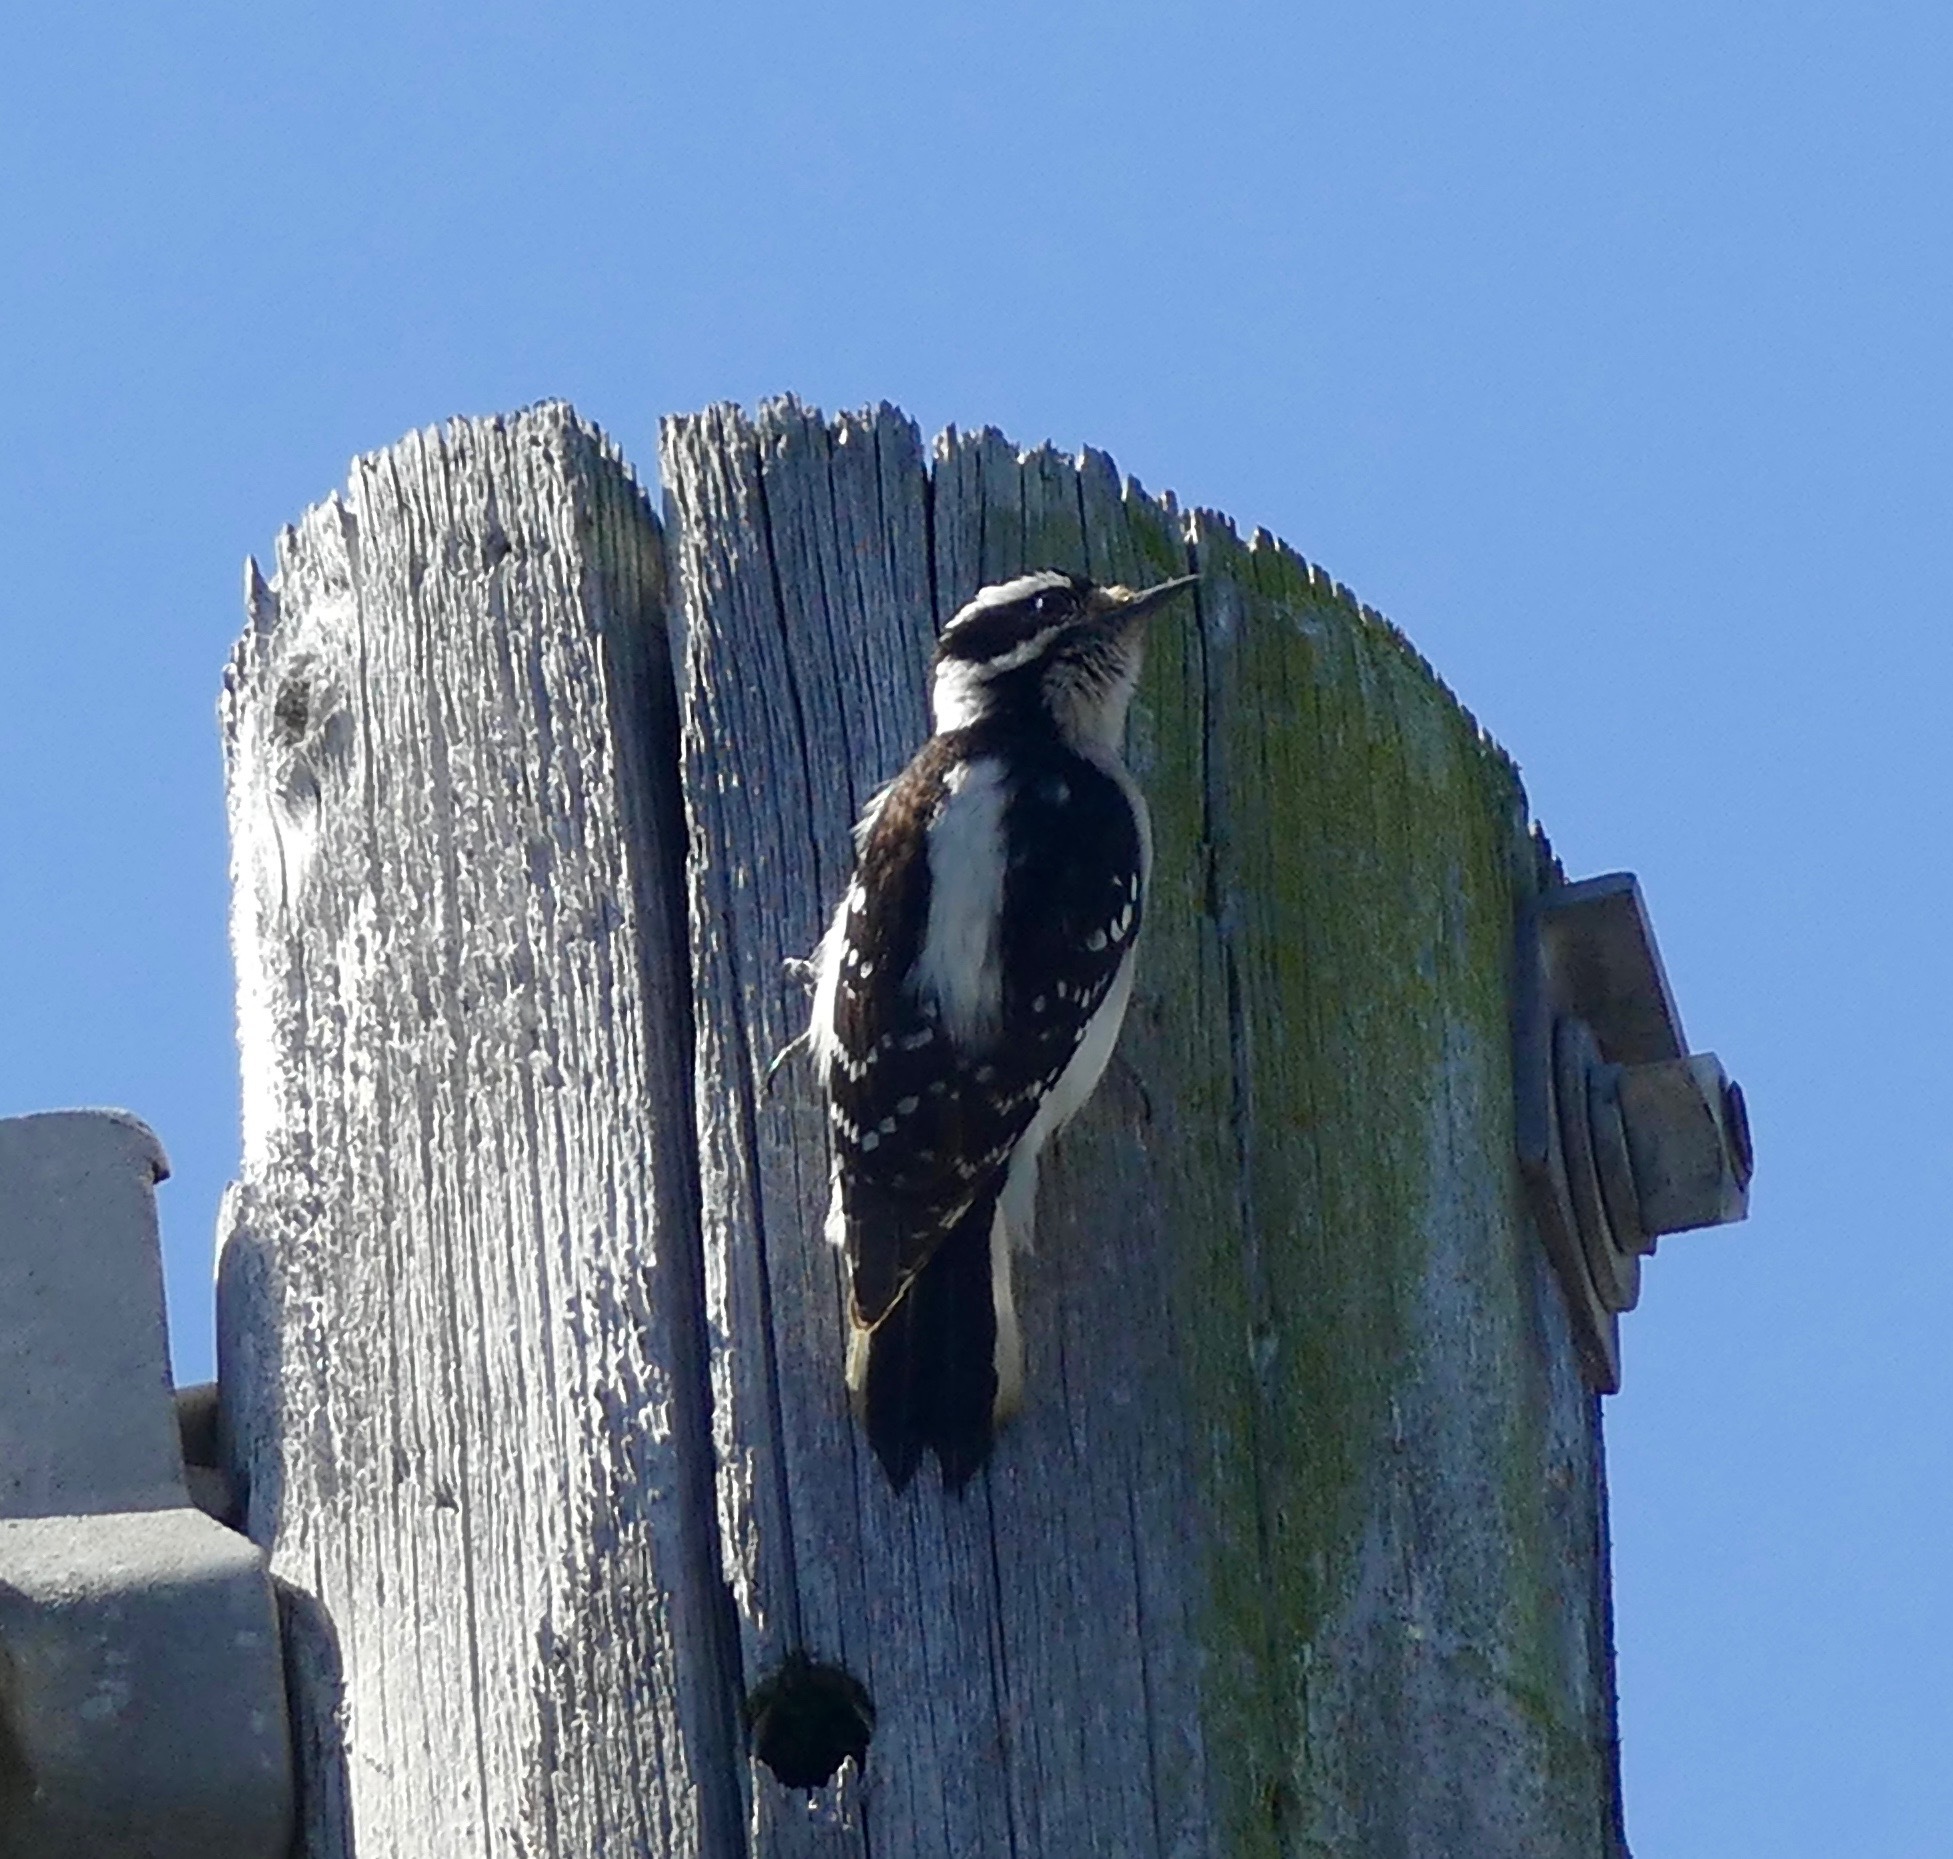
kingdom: Animalia
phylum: Chordata
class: Aves
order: Piciformes
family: Picidae
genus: Leuconotopicus
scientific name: Leuconotopicus villosus
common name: Hairy woodpecker
